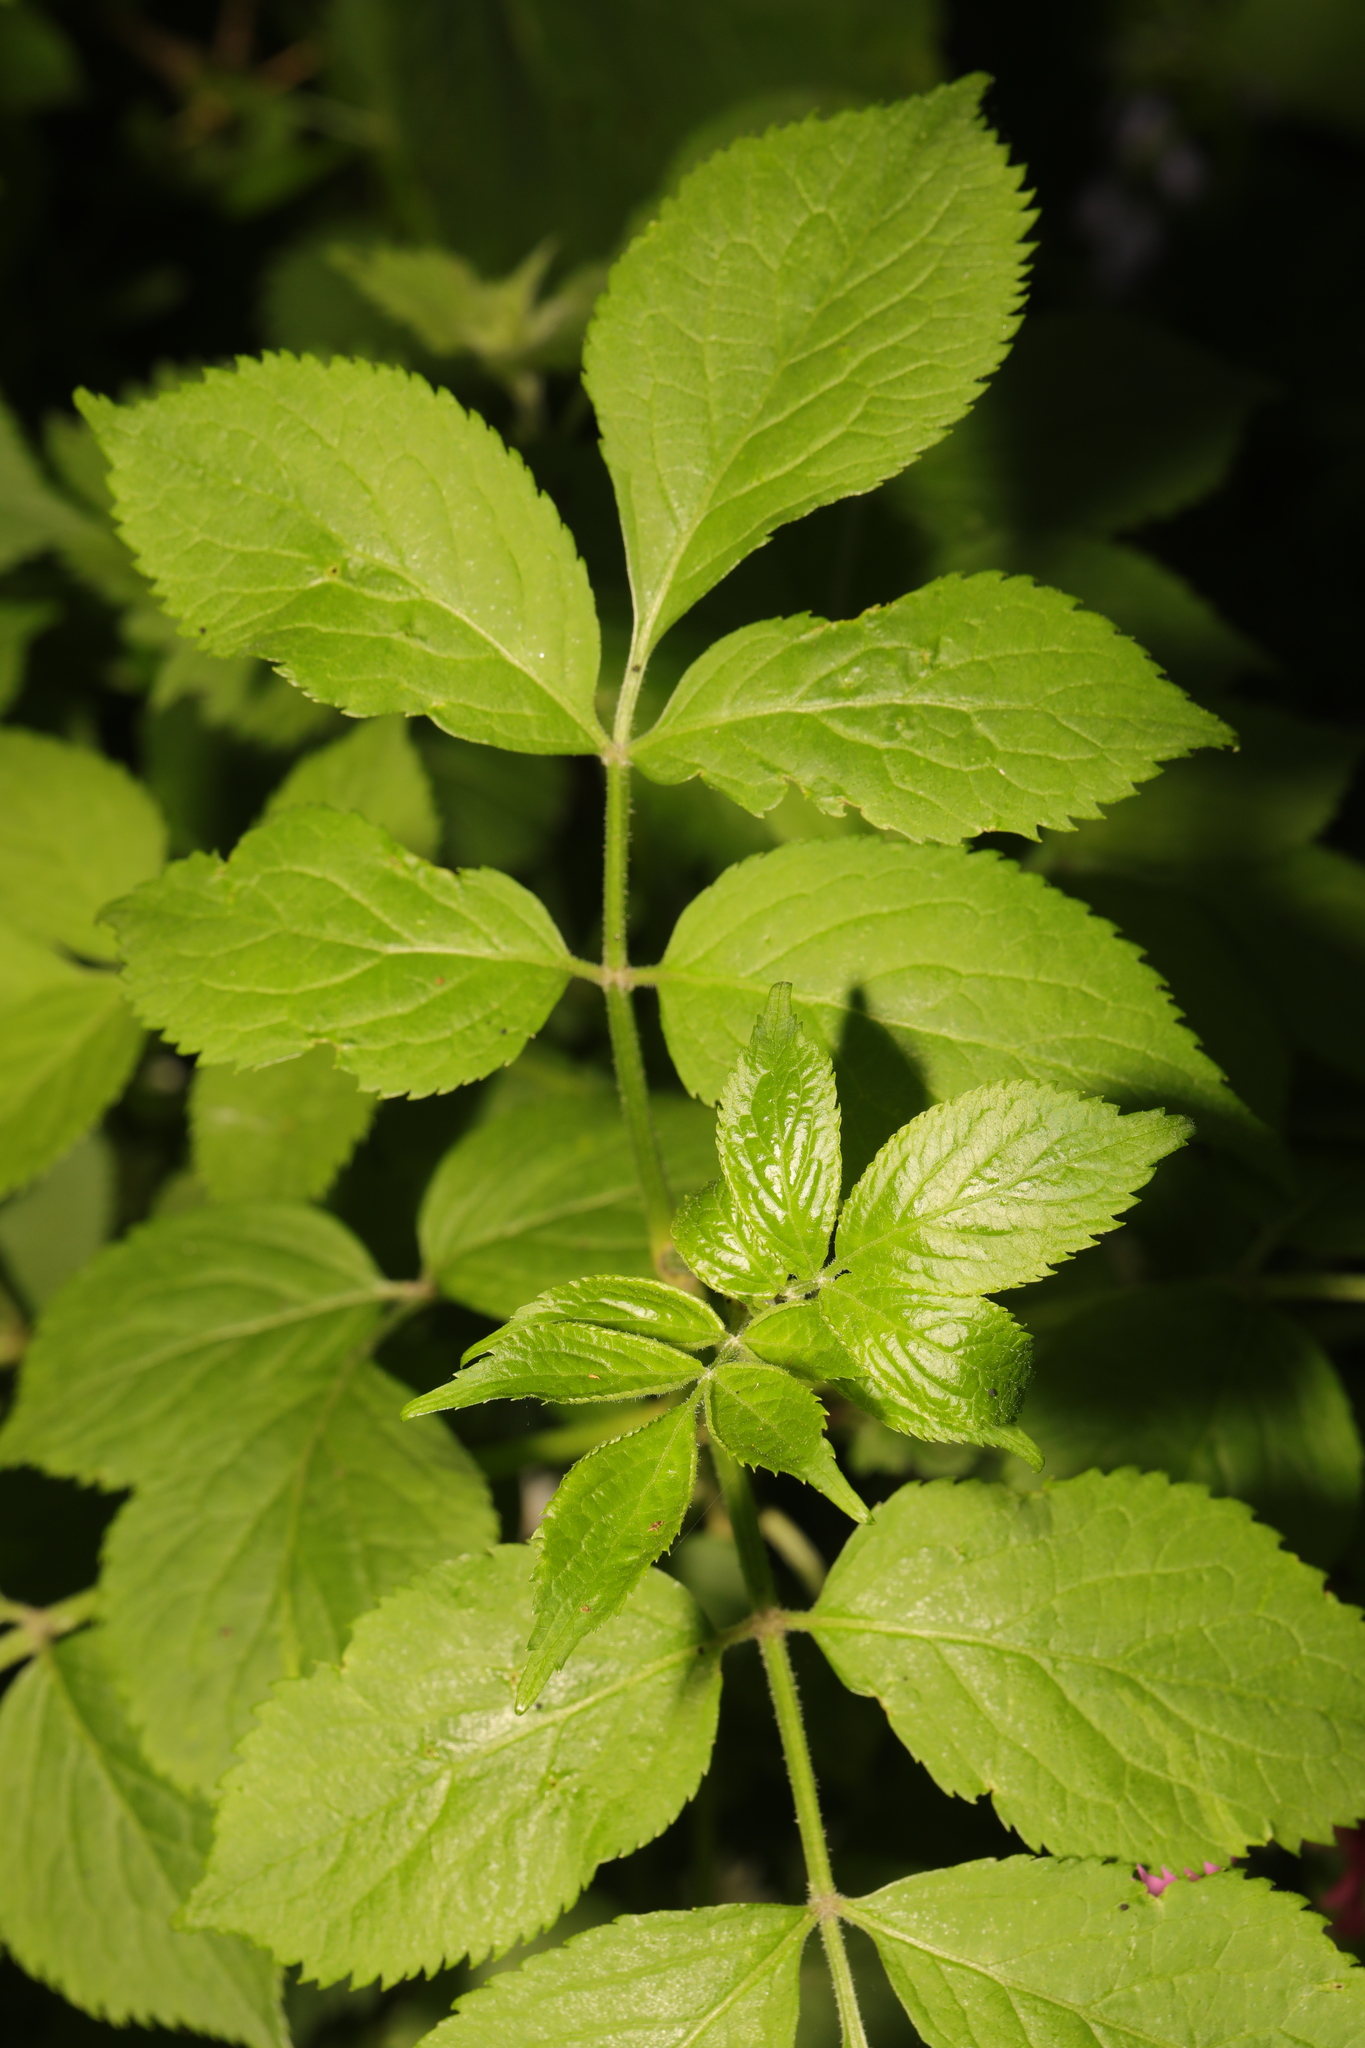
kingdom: Plantae
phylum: Tracheophyta
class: Magnoliopsida
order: Dipsacales
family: Viburnaceae
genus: Sambucus
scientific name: Sambucus nigra
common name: Elder
